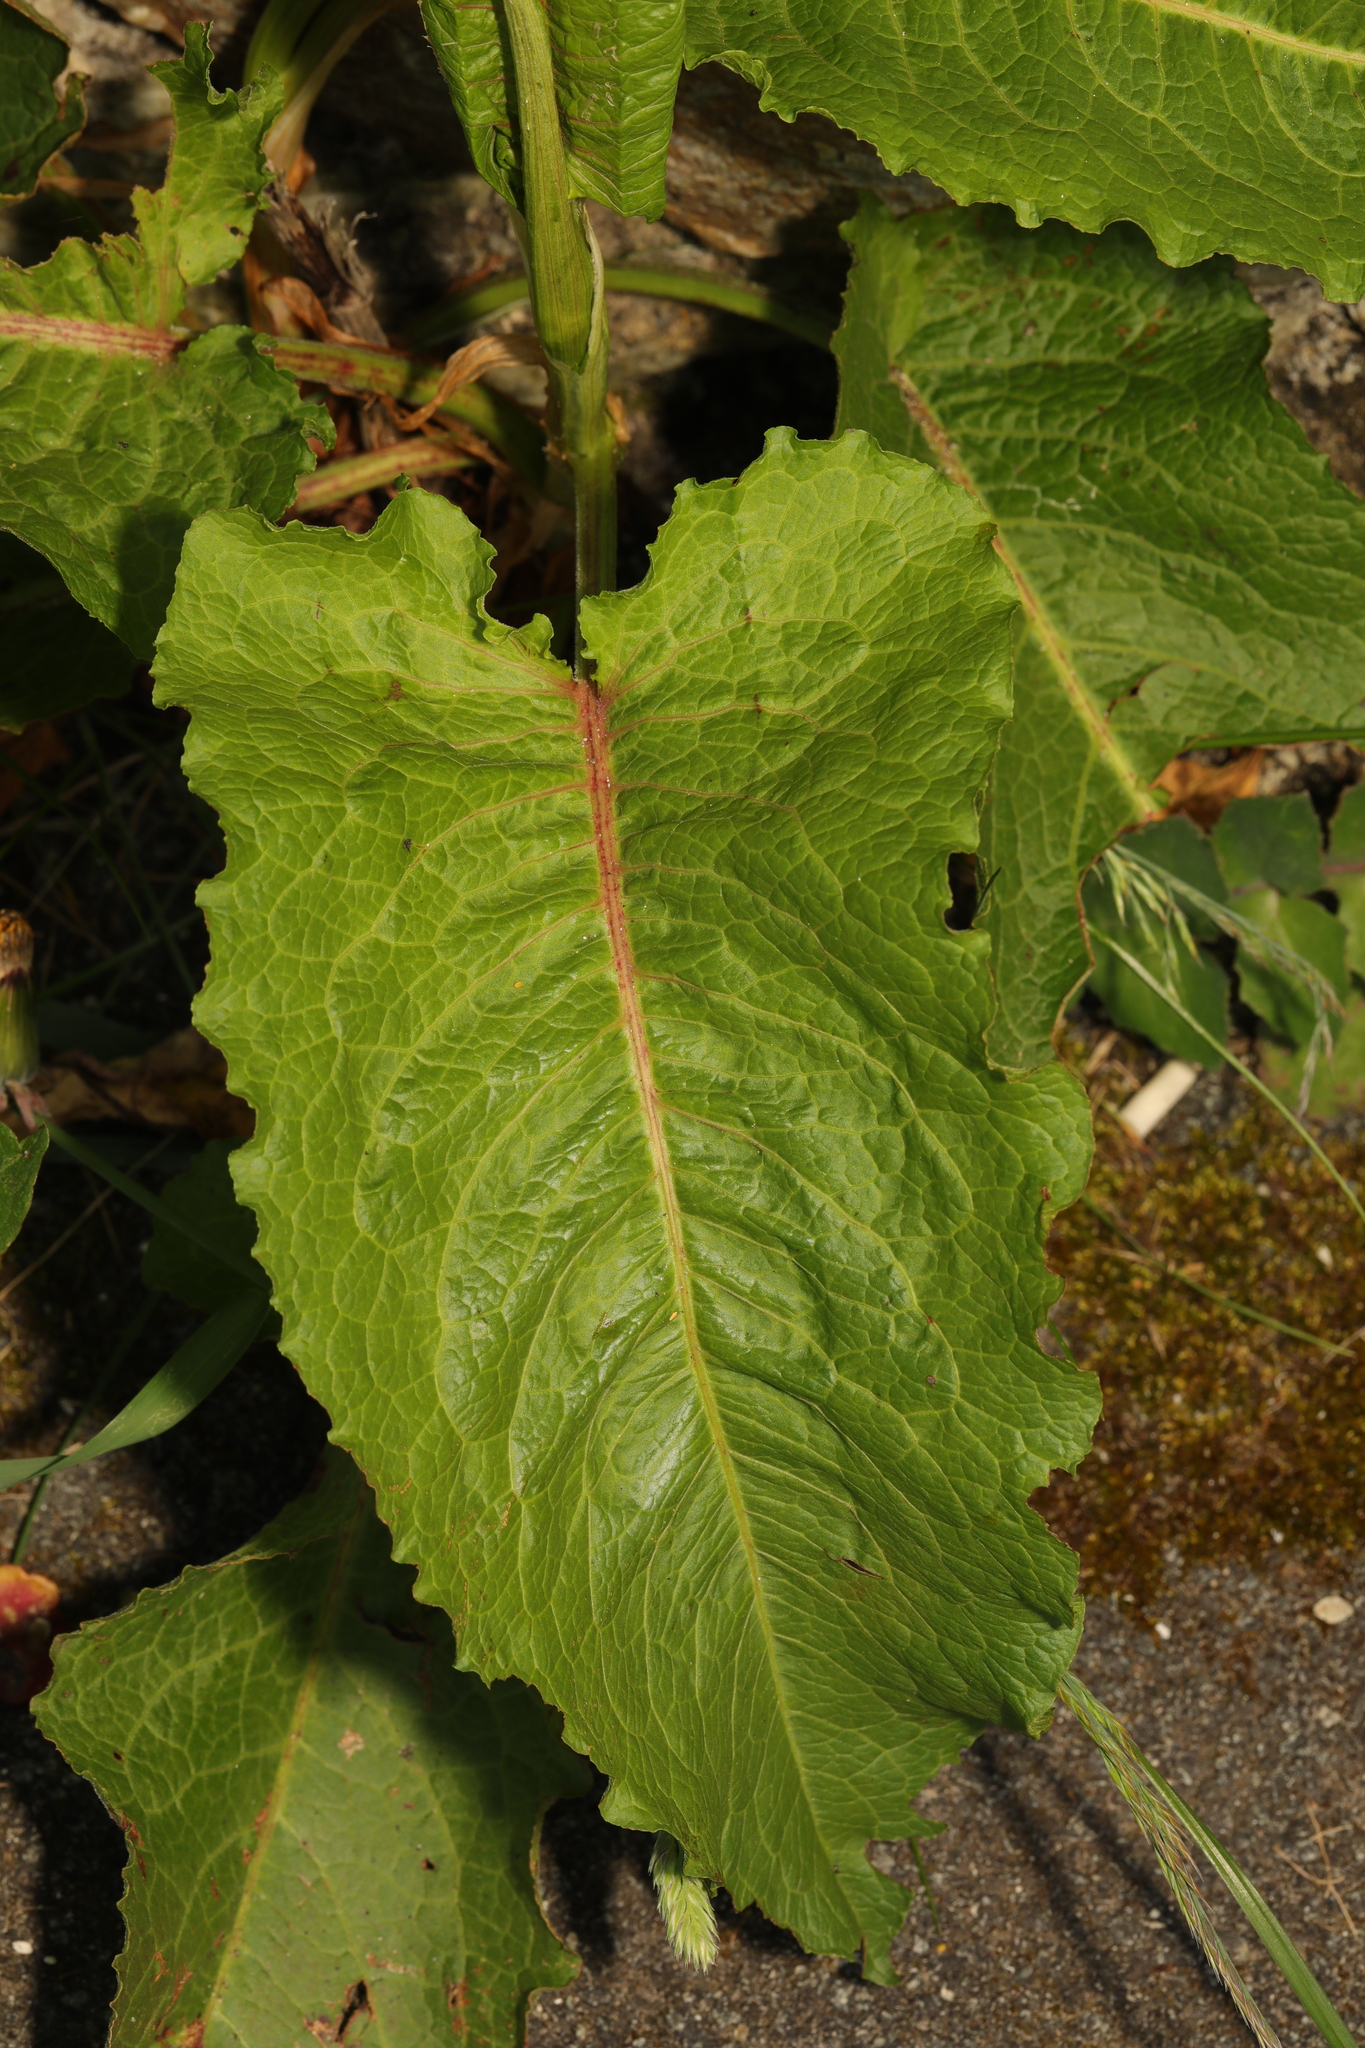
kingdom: Plantae
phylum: Tracheophyta
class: Magnoliopsida
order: Caryophyllales
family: Polygonaceae
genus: Rumex
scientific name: Rumex obtusifolius
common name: Bitter dock
